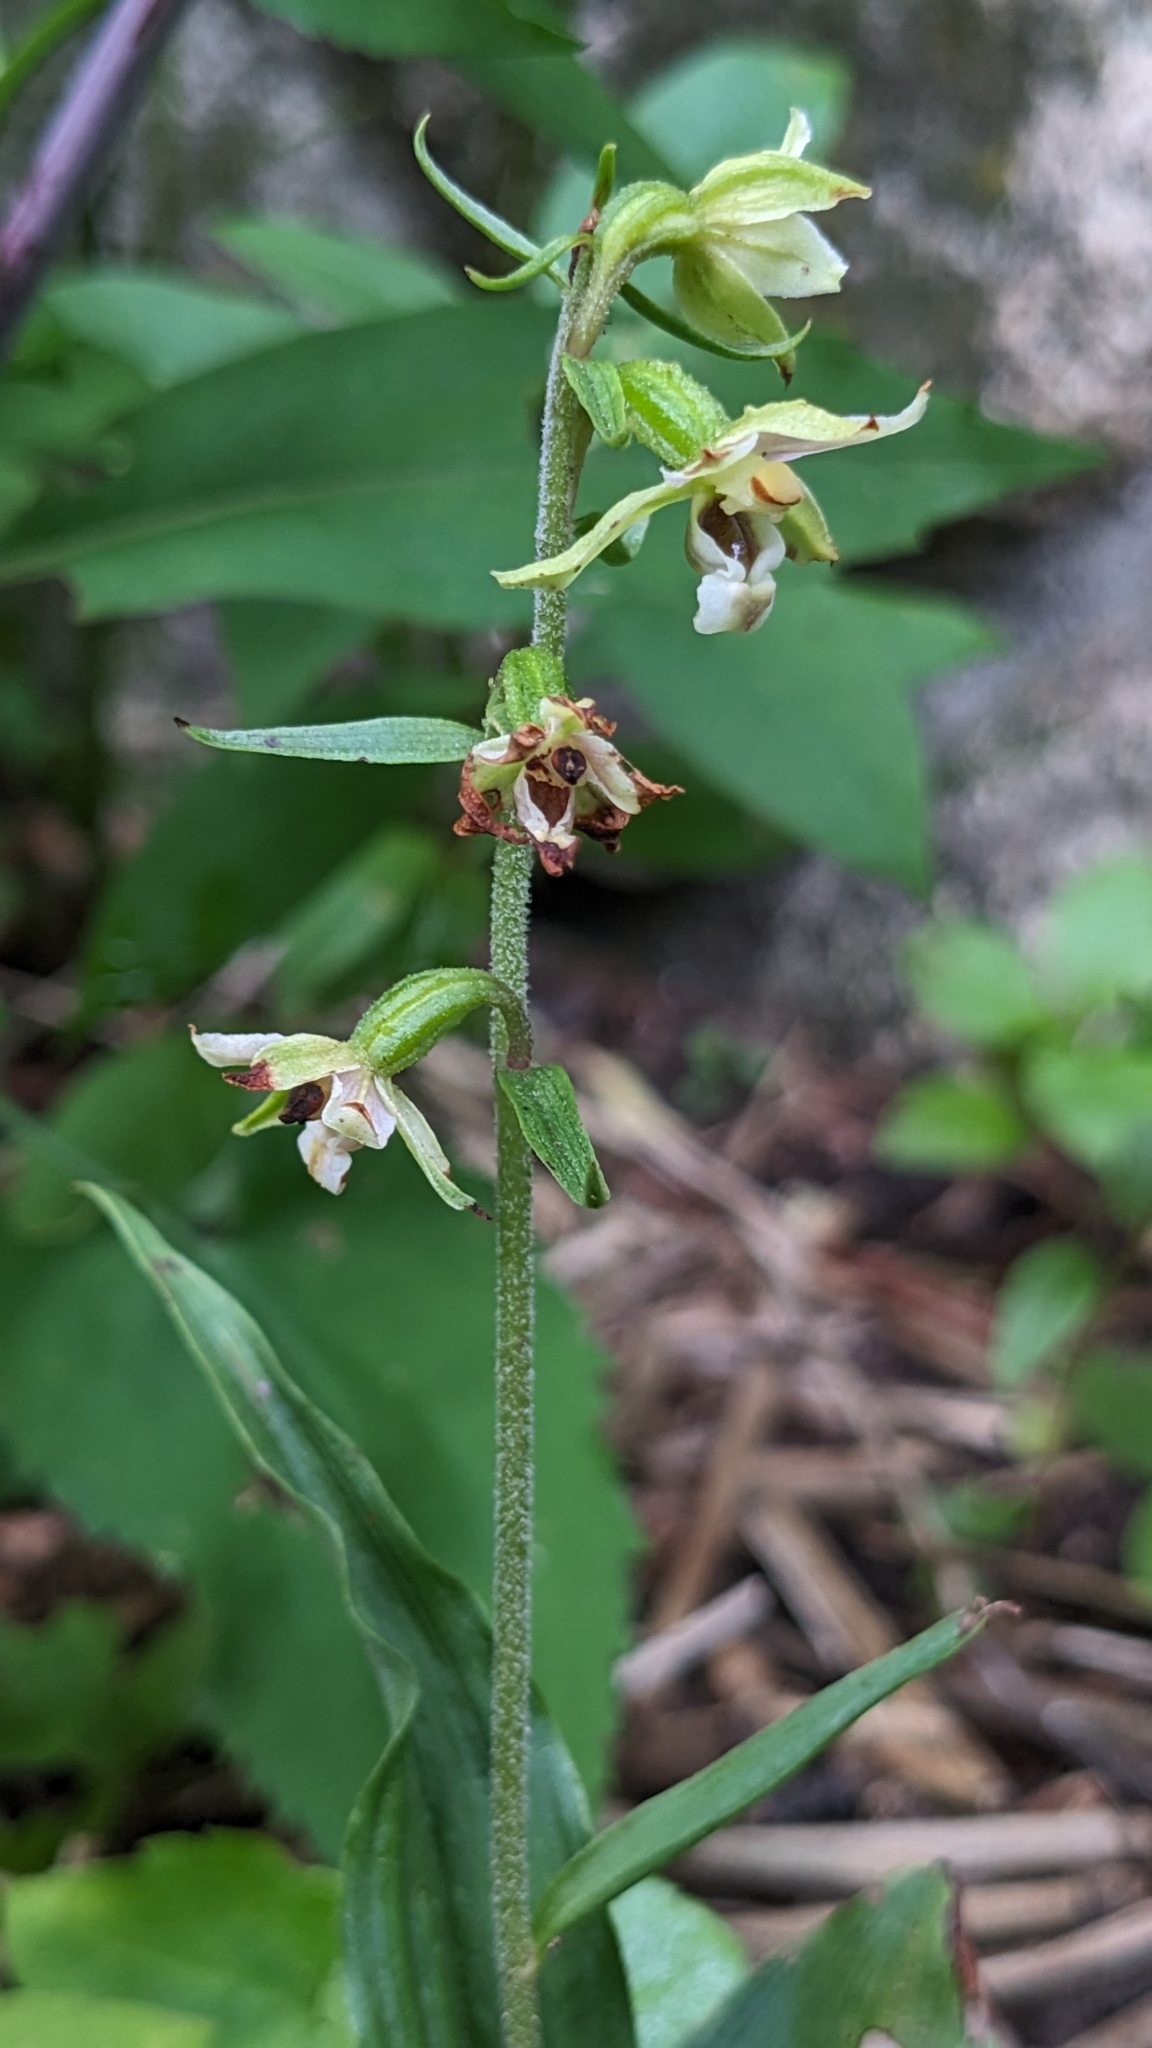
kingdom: Plantae
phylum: Tracheophyta
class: Liliopsida
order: Asparagales
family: Orchidaceae
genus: Epipactis
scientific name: Epipactis helleborine
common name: Broad-leaved helleborine
